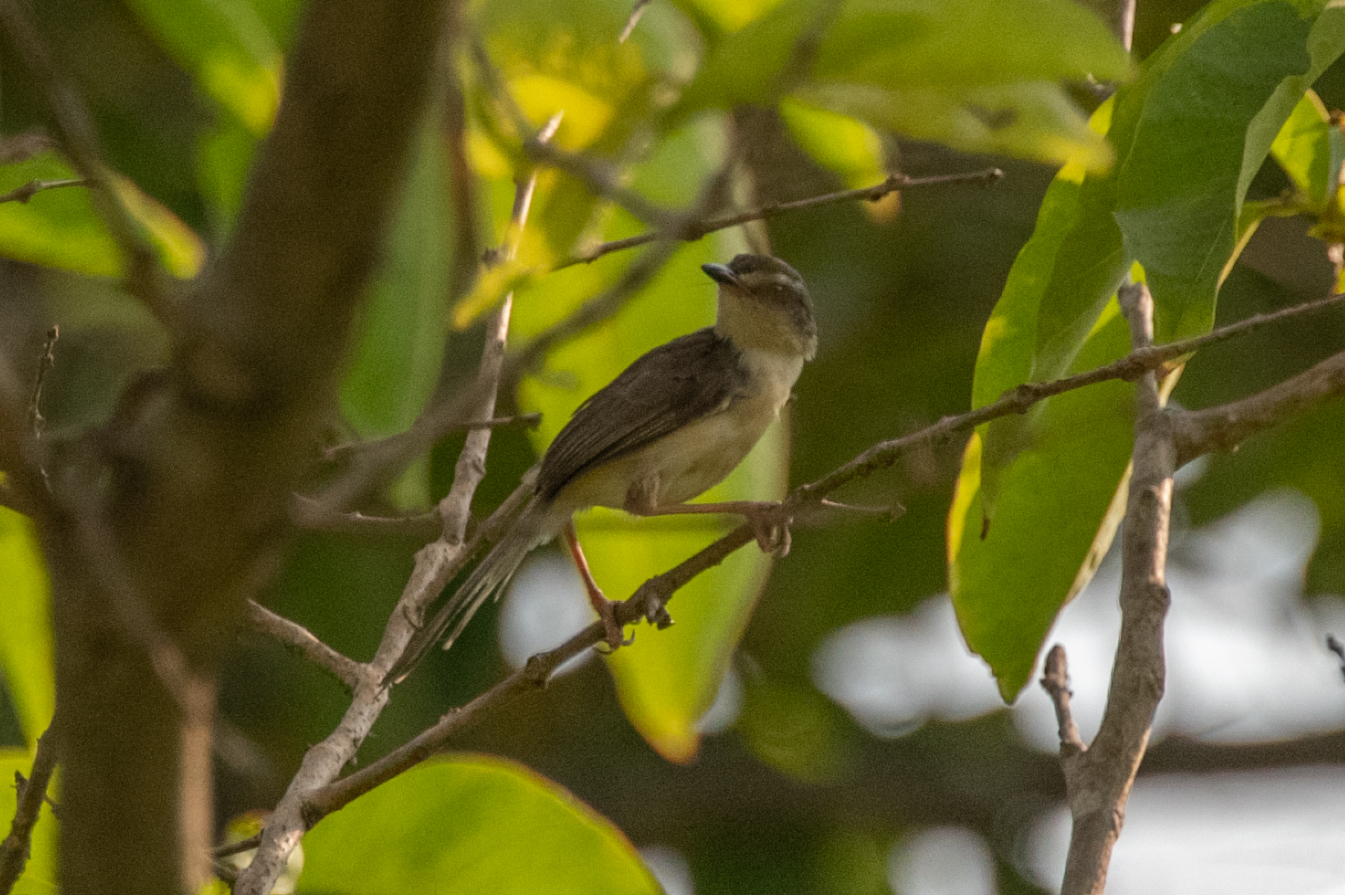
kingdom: Animalia
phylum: Chordata
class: Aves
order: Passeriformes
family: Cisticolidae
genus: Prinia
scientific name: Prinia inornata
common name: Plain prinia
